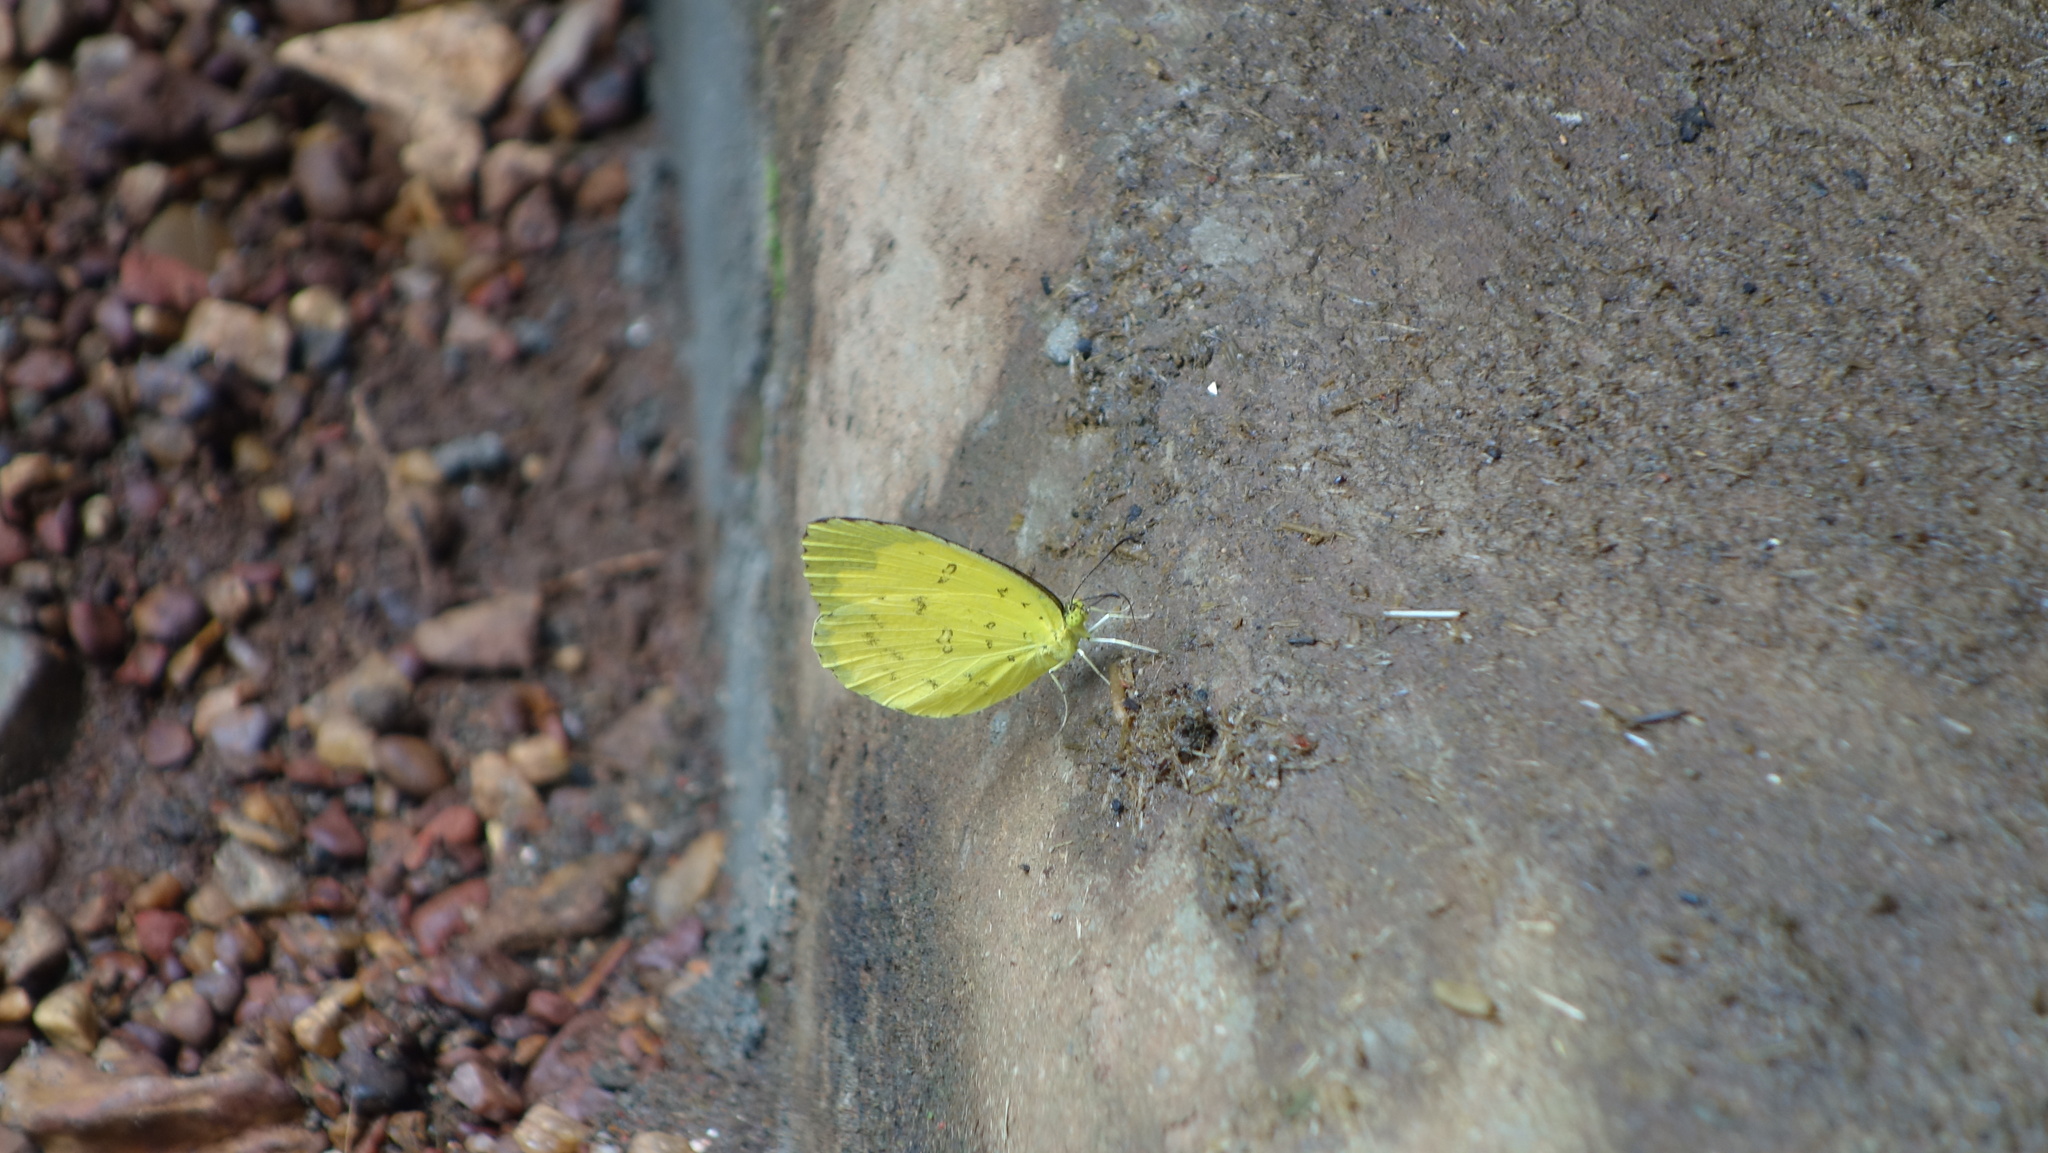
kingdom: Animalia
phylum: Arthropoda
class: Insecta
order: Lepidoptera
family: Pieridae
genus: Eurema
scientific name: Eurema hecabe
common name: Pale grass yellow
